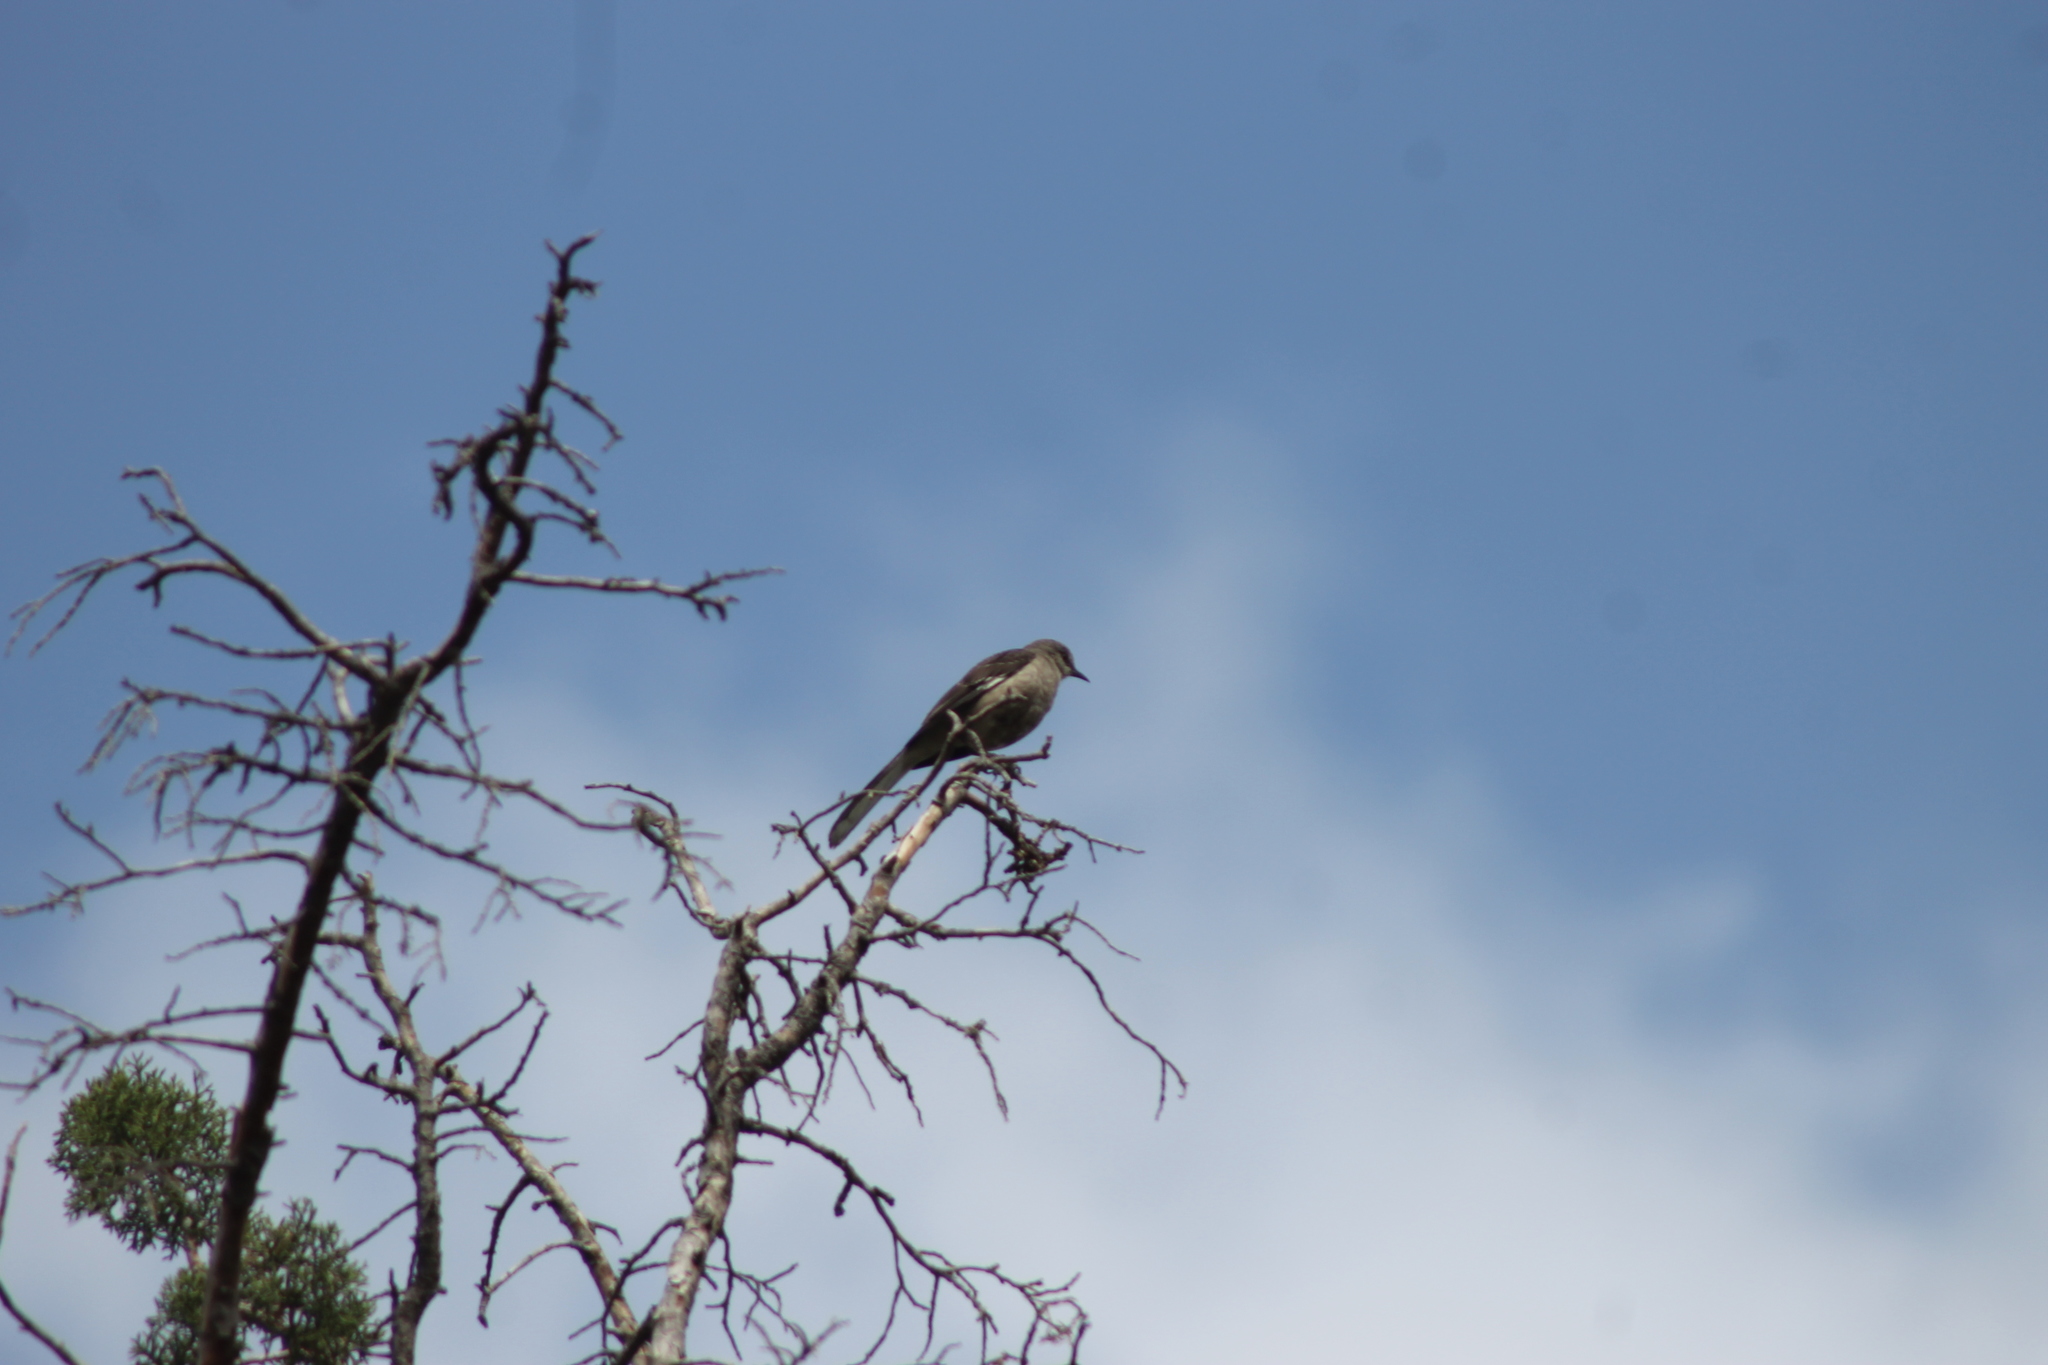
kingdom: Animalia
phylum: Chordata
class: Aves
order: Passeriformes
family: Mimidae
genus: Mimus
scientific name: Mimus polyglottos
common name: Northern mockingbird
